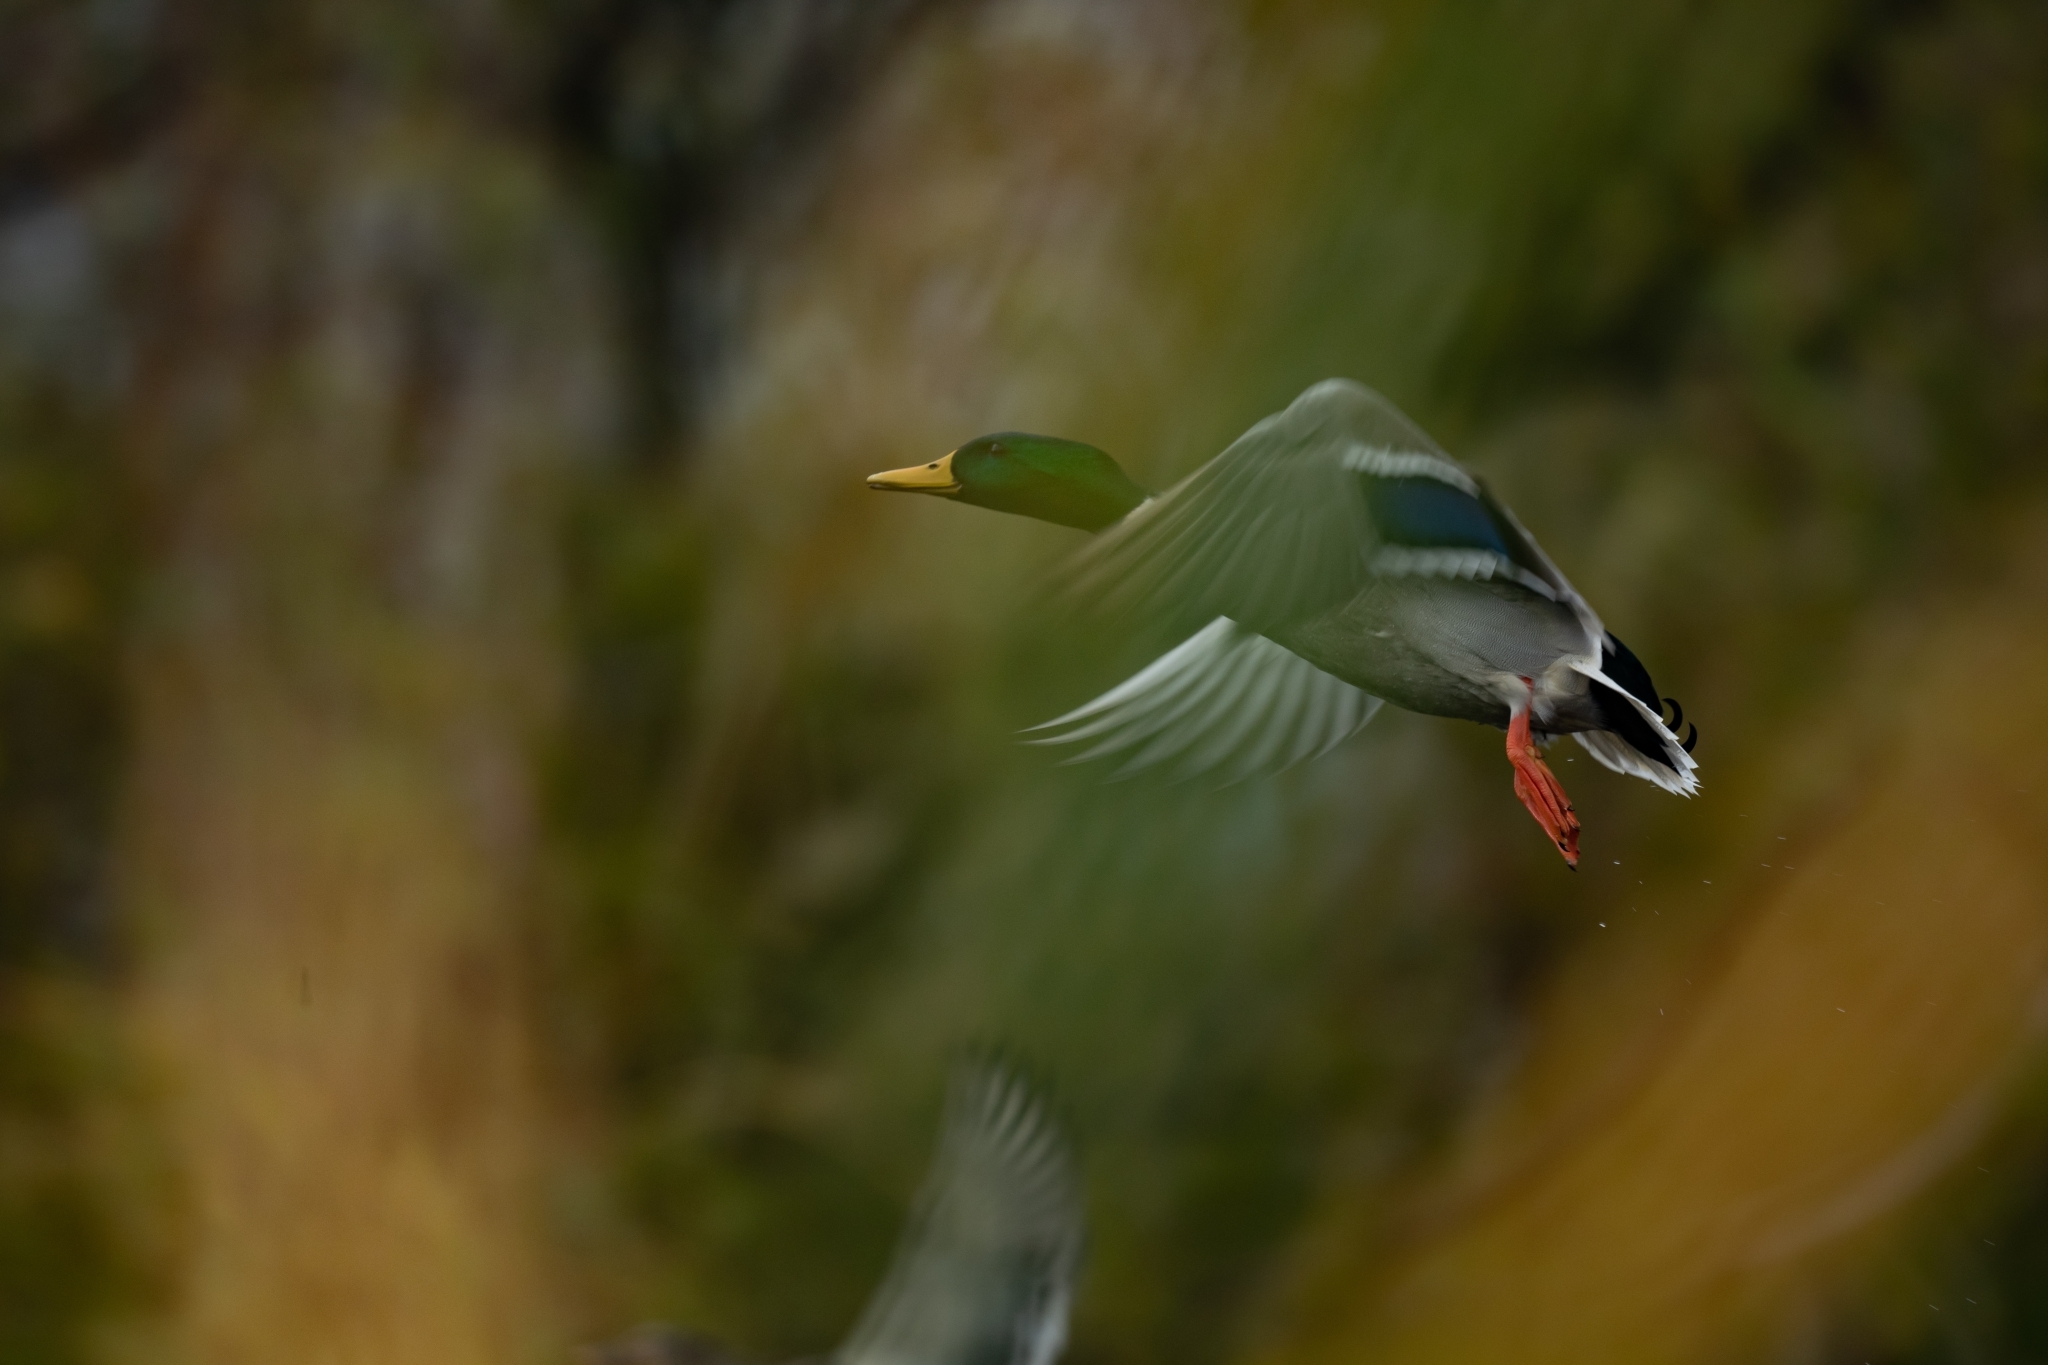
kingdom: Animalia
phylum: Chordata
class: Aves
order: Anseriformes
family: Anatidae
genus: Anas
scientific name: Anas platyrhynchos
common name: Mallard
